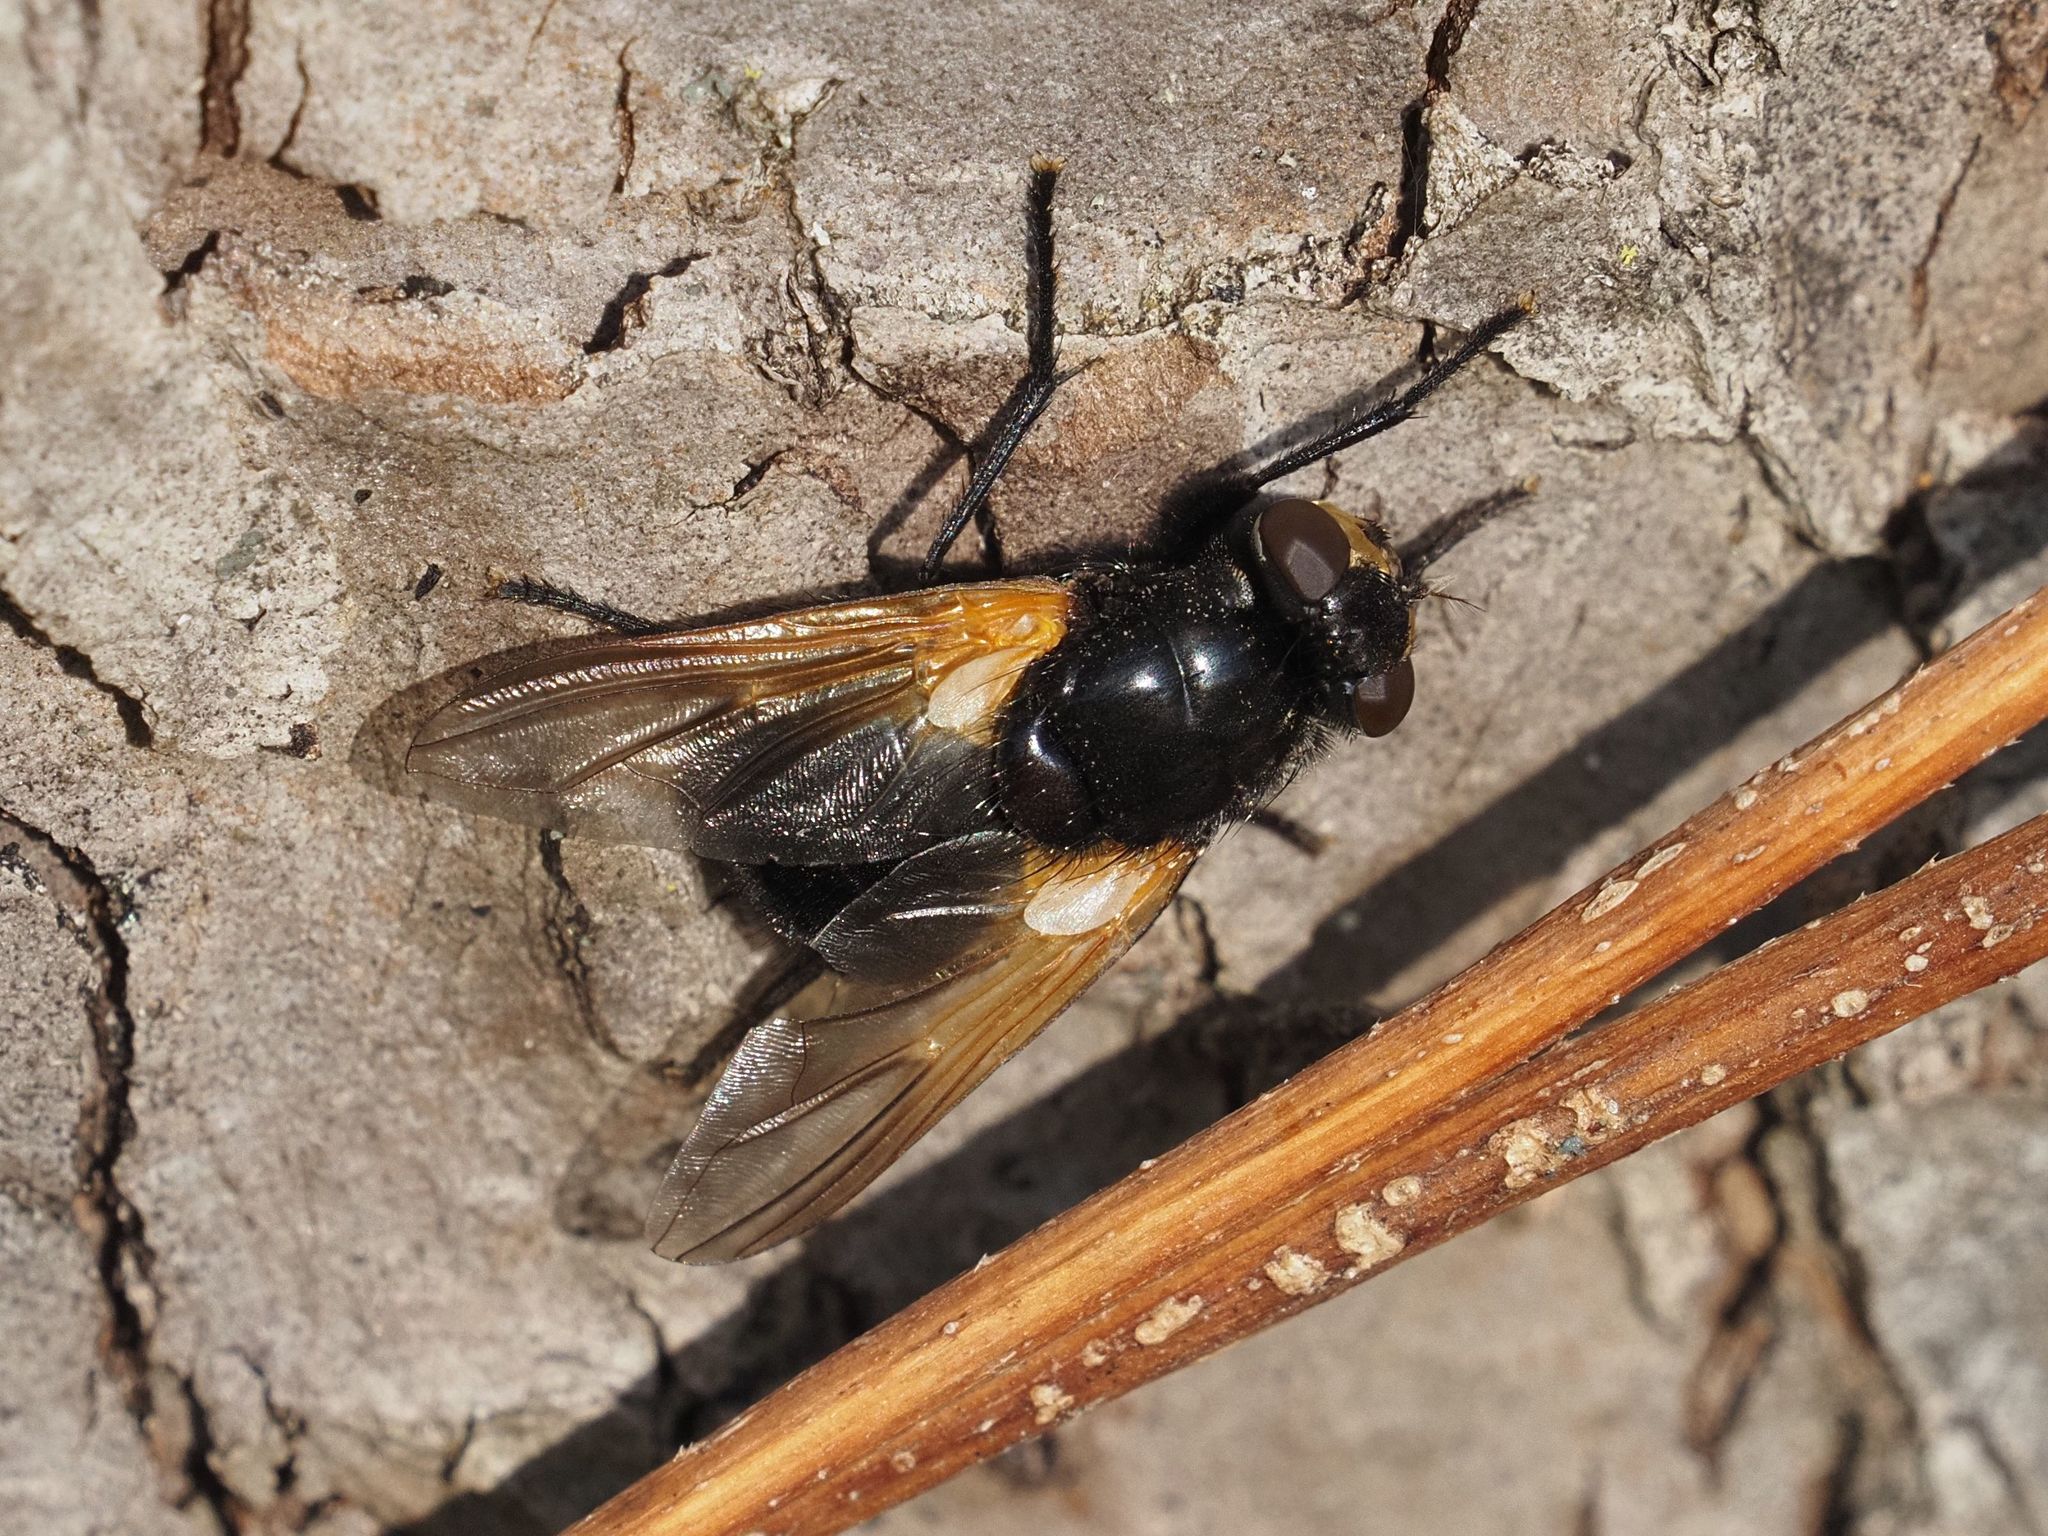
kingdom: Animalia
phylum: Arthropoda
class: Insecta
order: Diptera
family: Muscidae
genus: Mesembrina
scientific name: Mesembrina meridiana
